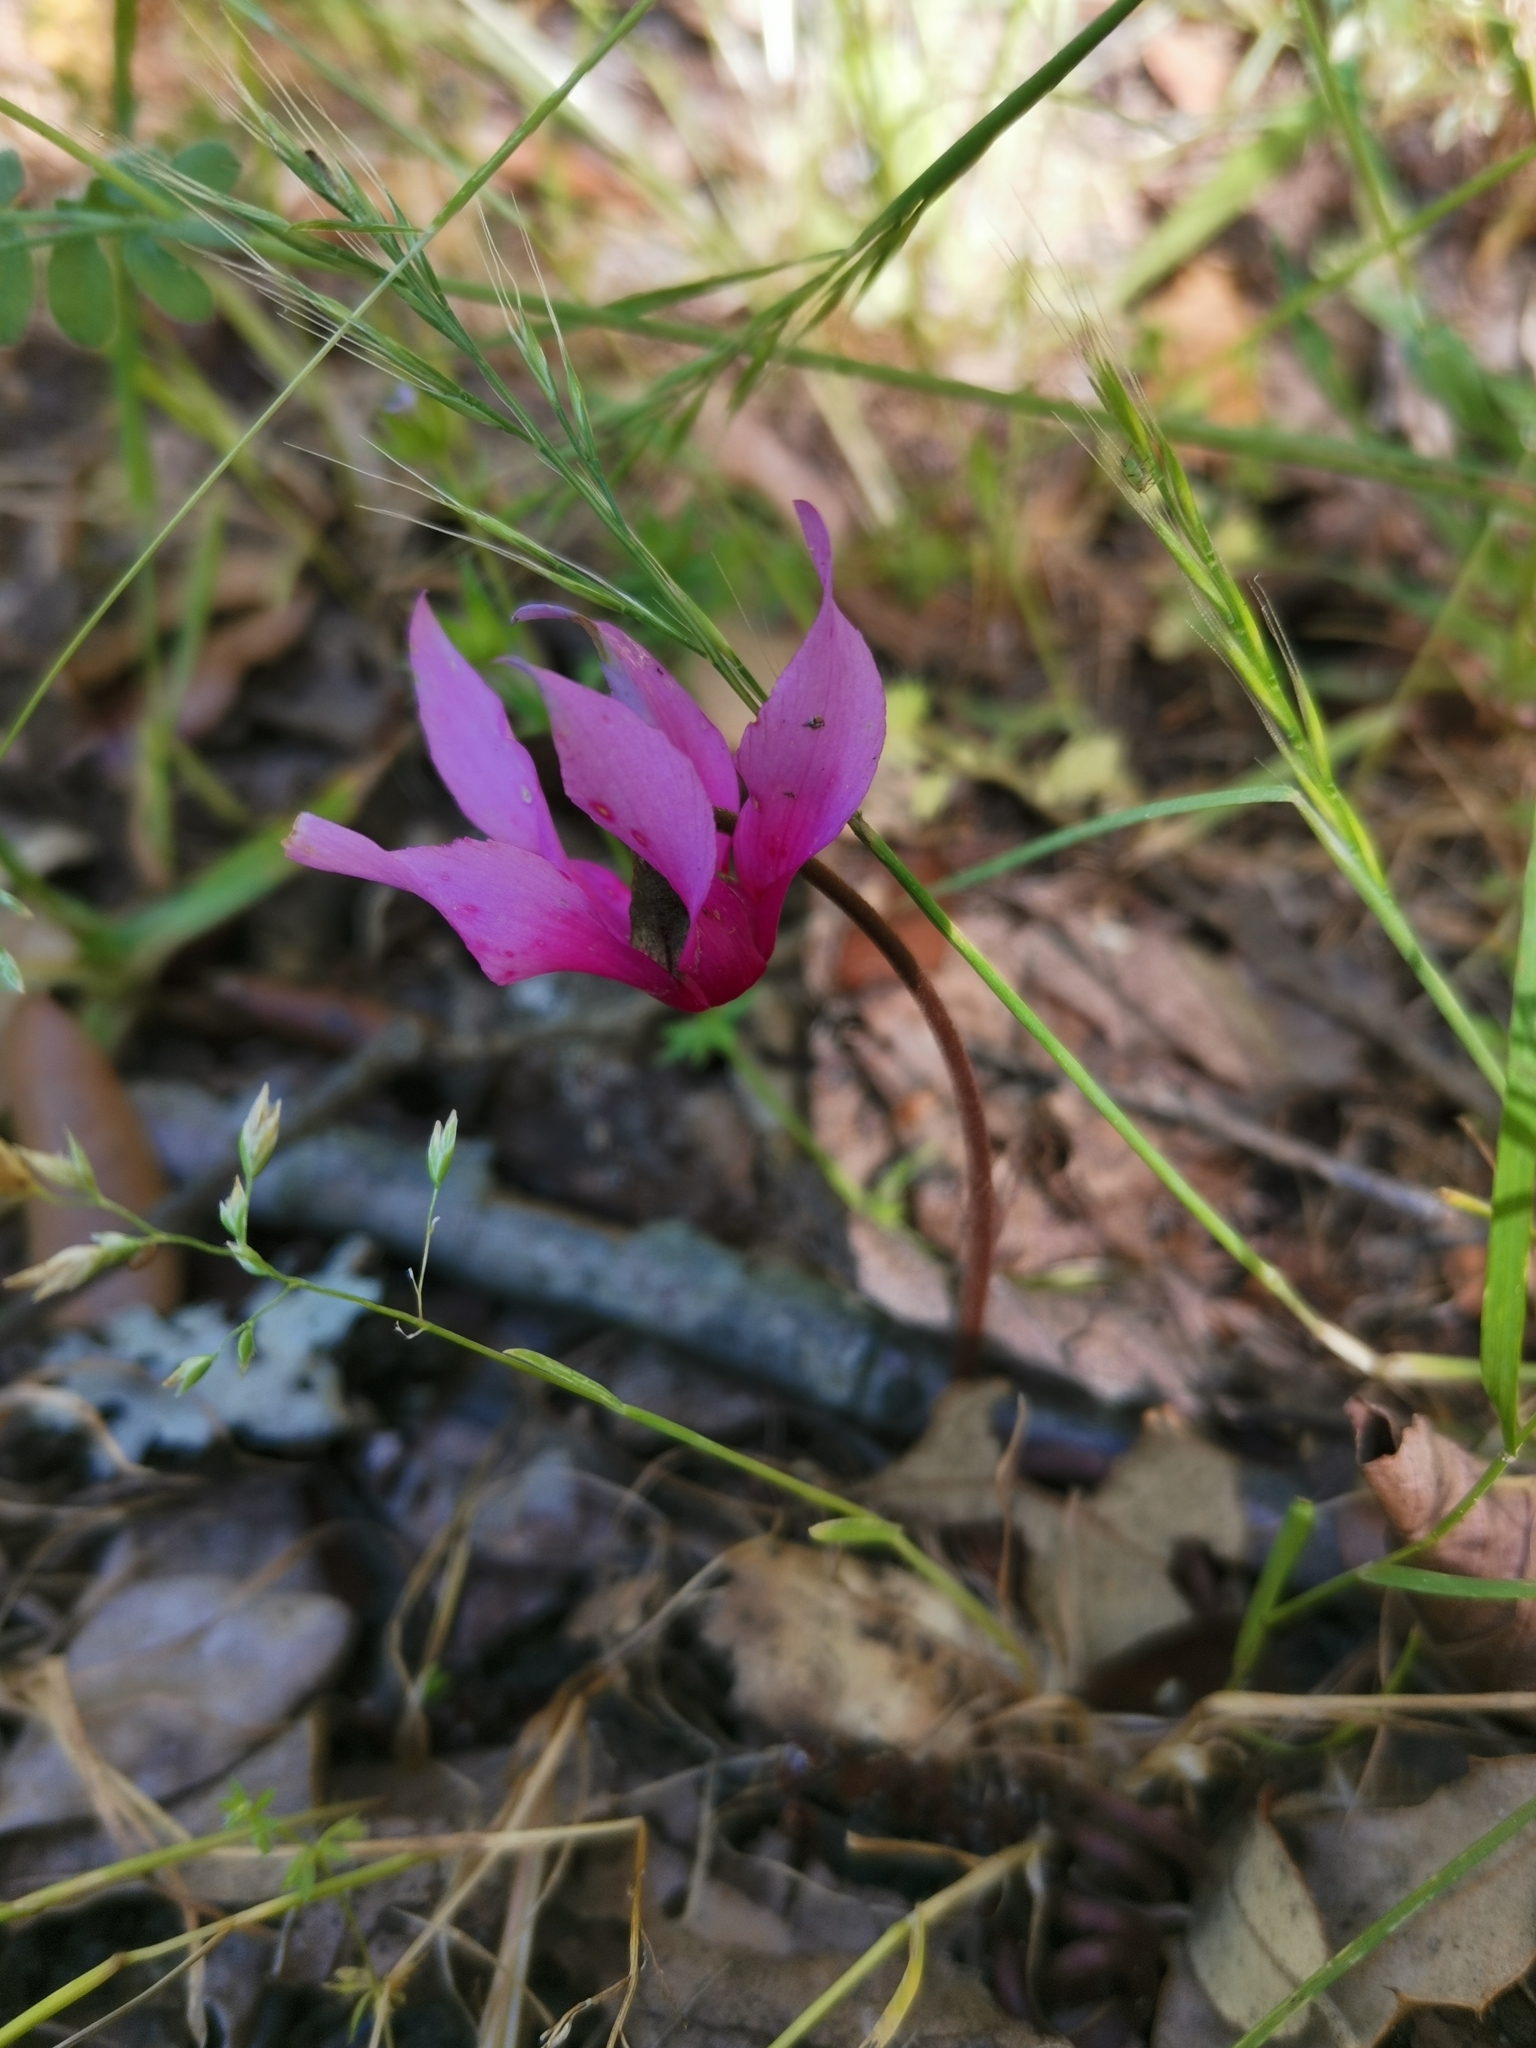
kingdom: Plantae
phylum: Tracheophyta
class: Magnoliopsida
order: Ericales
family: Primulaceae
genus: Cyclamen
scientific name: Cyclamen repandum
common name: Spring sowbread
